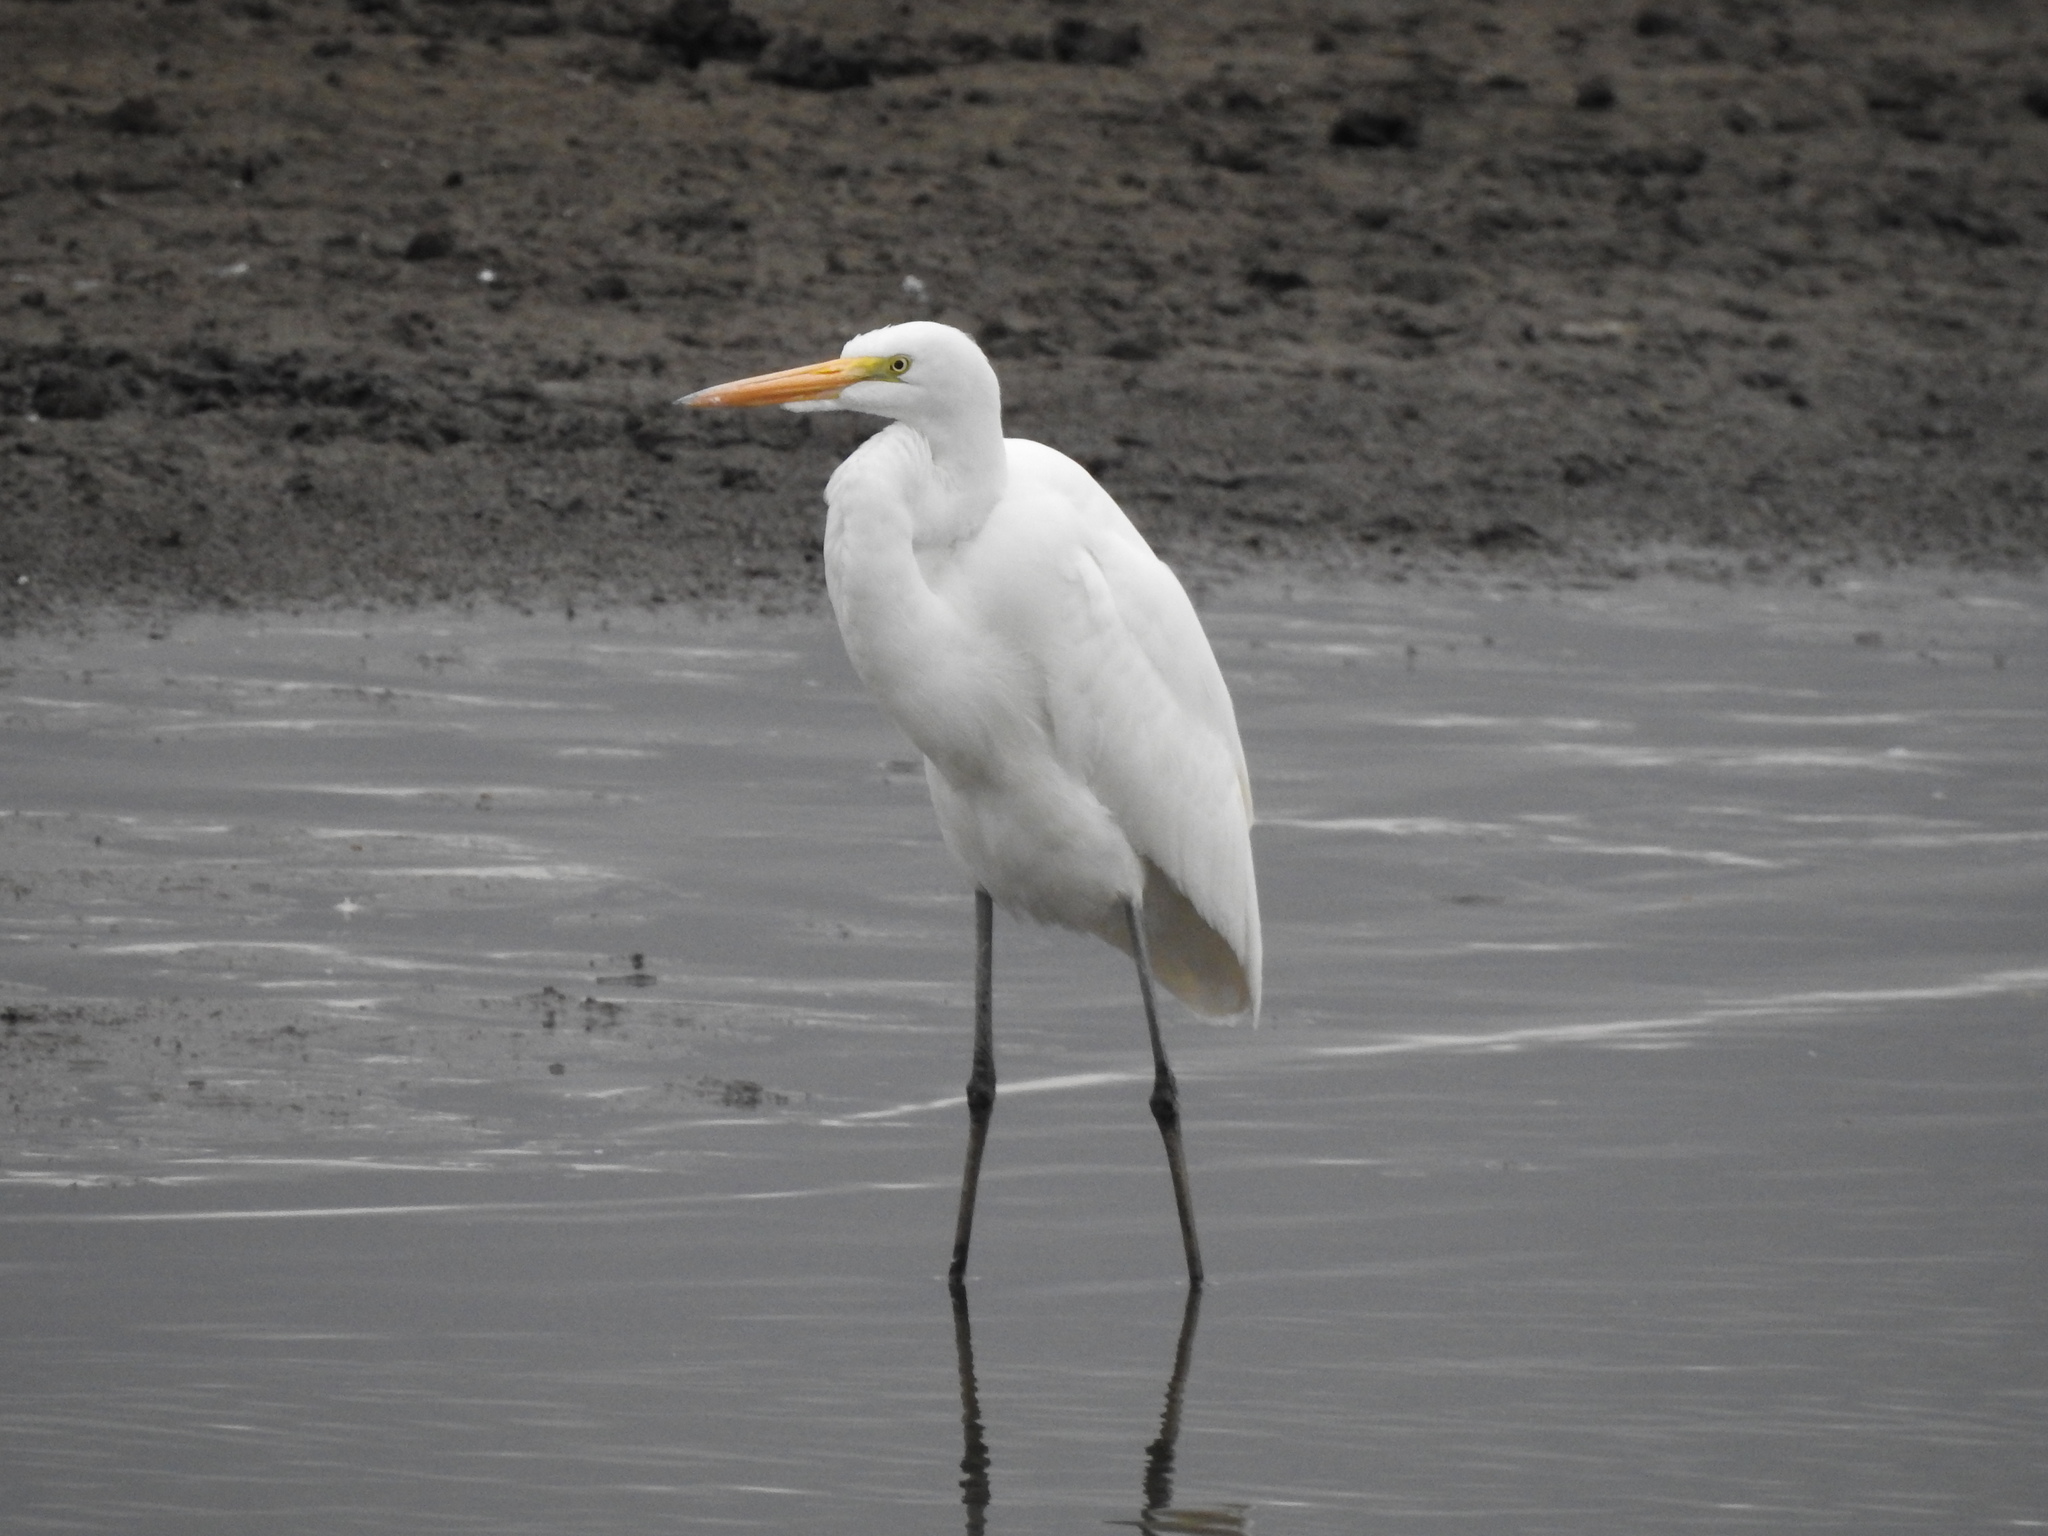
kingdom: Animalia
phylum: Chordata
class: Aves
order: Pelecaniformes
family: Ardeidae
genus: Ardea
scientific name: Ardea alba
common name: Great egret
